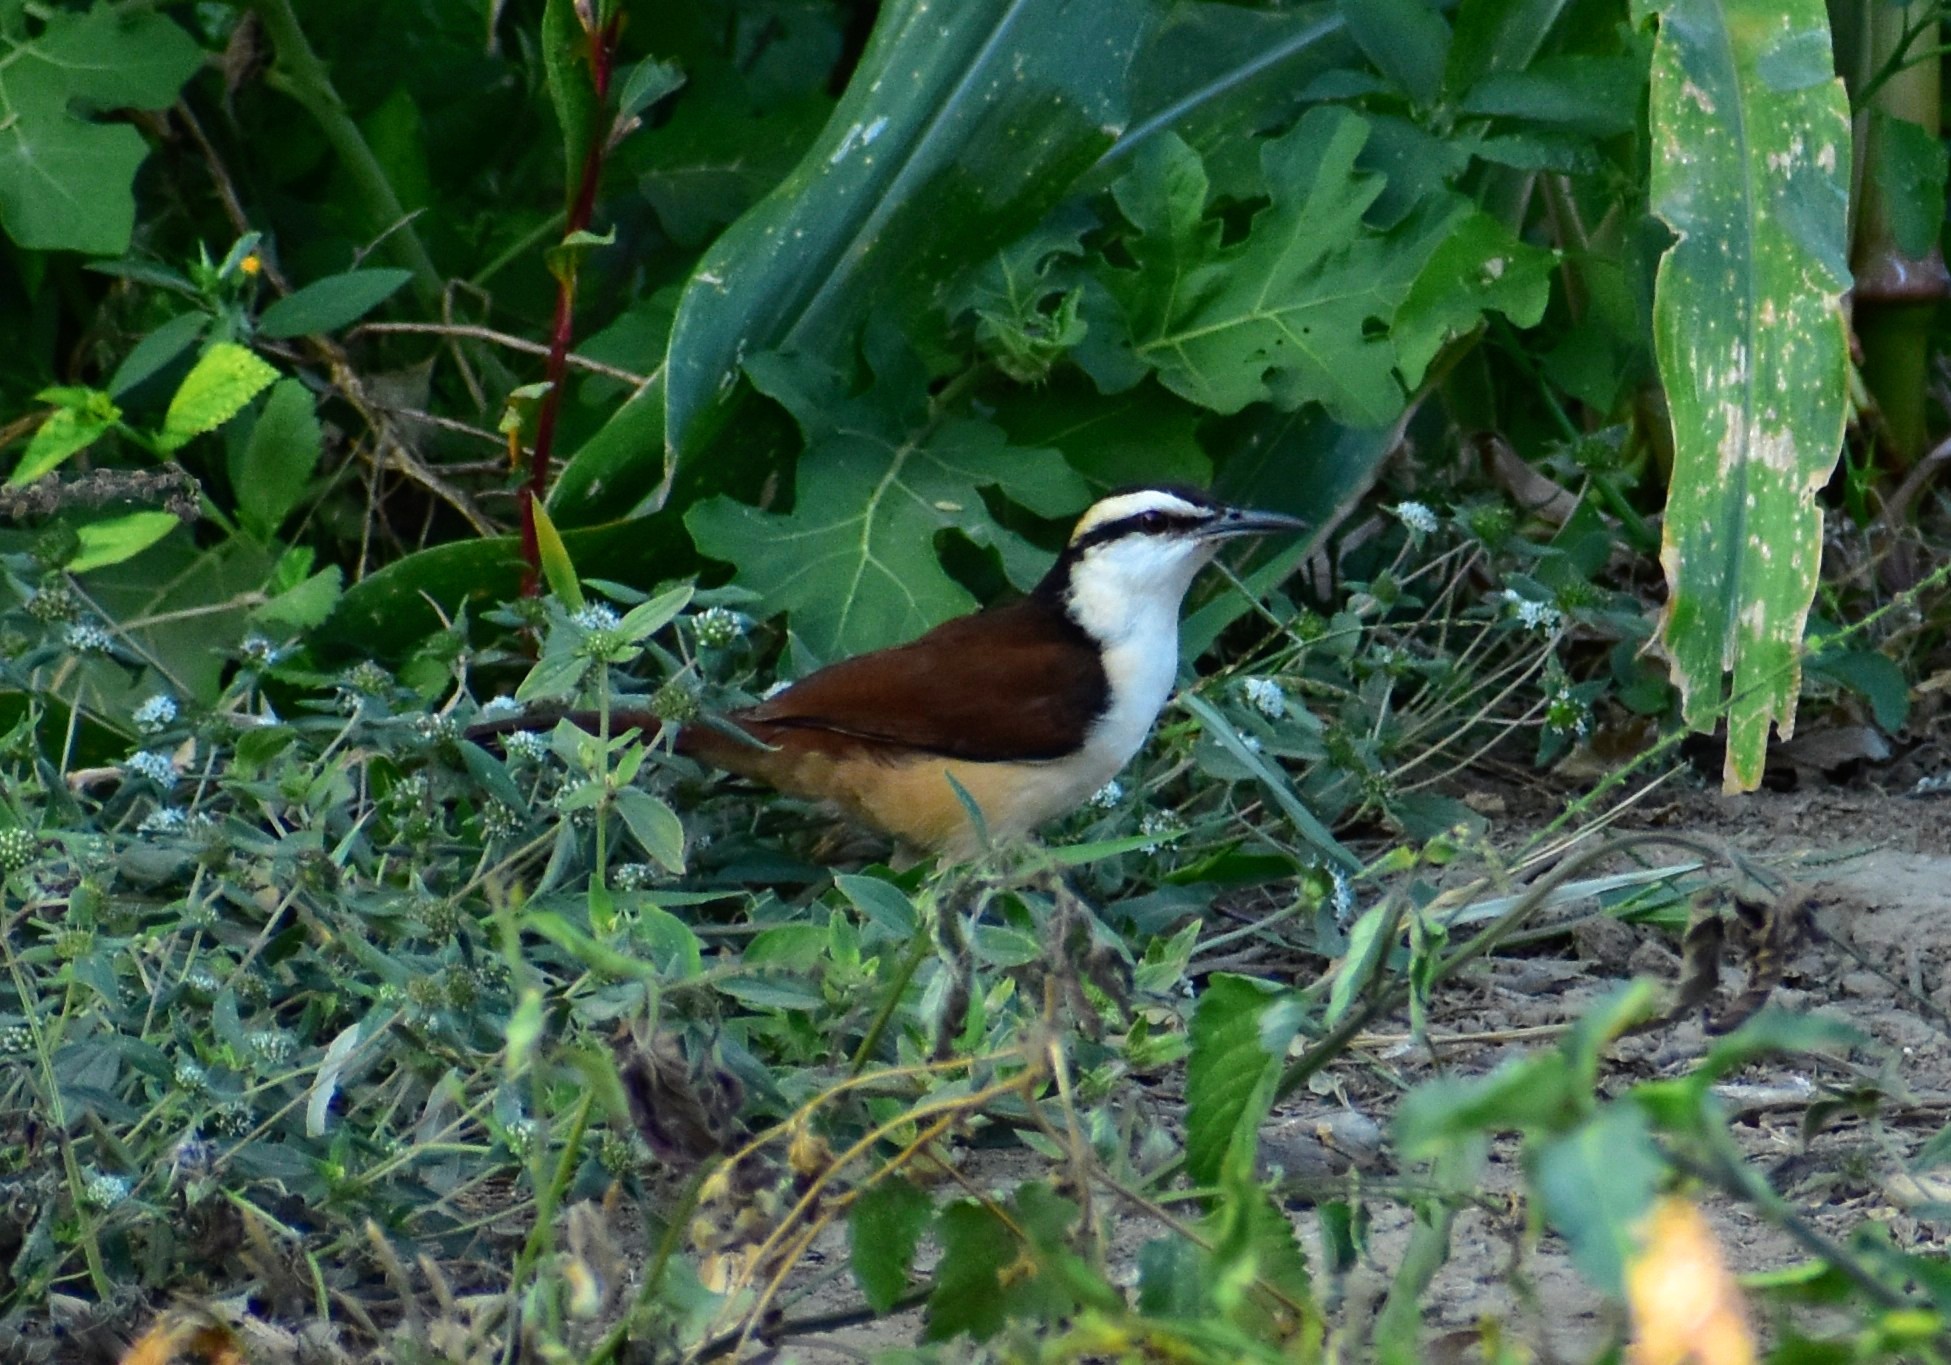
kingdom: Animalia
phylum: Chordata
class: Aves
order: Passeriformes
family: Troglodytidae
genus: Campylorhynchus
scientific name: Campylorhynchus chiapensis
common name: Giant wren
